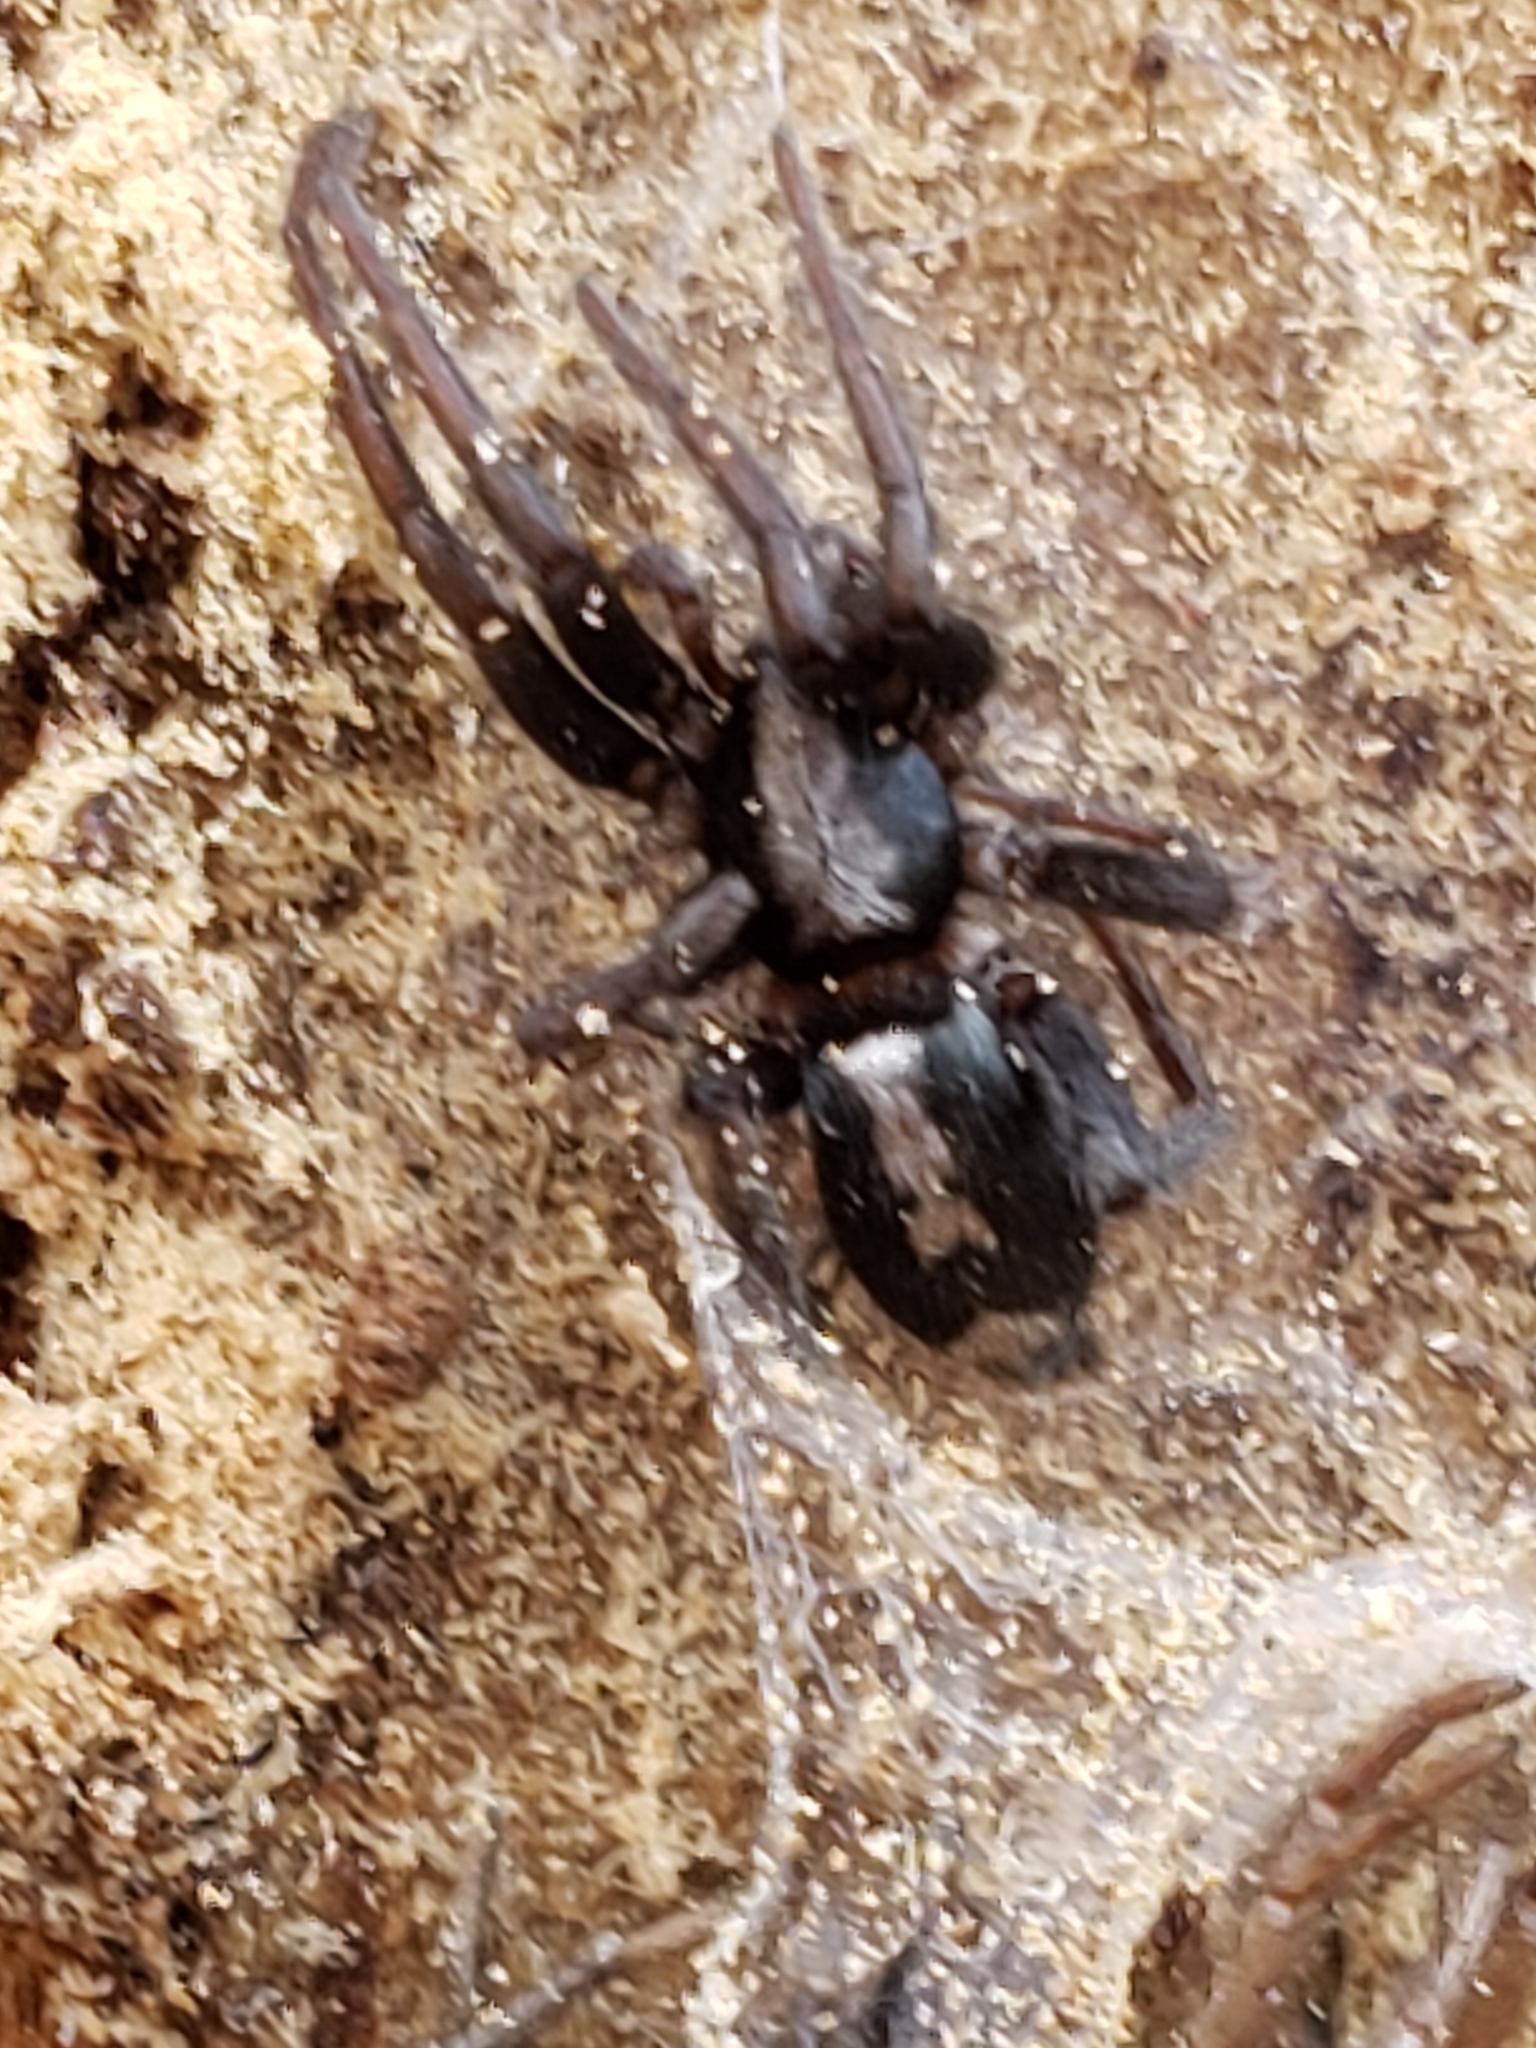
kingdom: Animalia
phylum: Arthropoda
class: Arachnida
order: Araneae
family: Gnaphosidae
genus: Herpyllus
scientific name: Herpyllus ecclesiasticus
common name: Eastern parson spider
